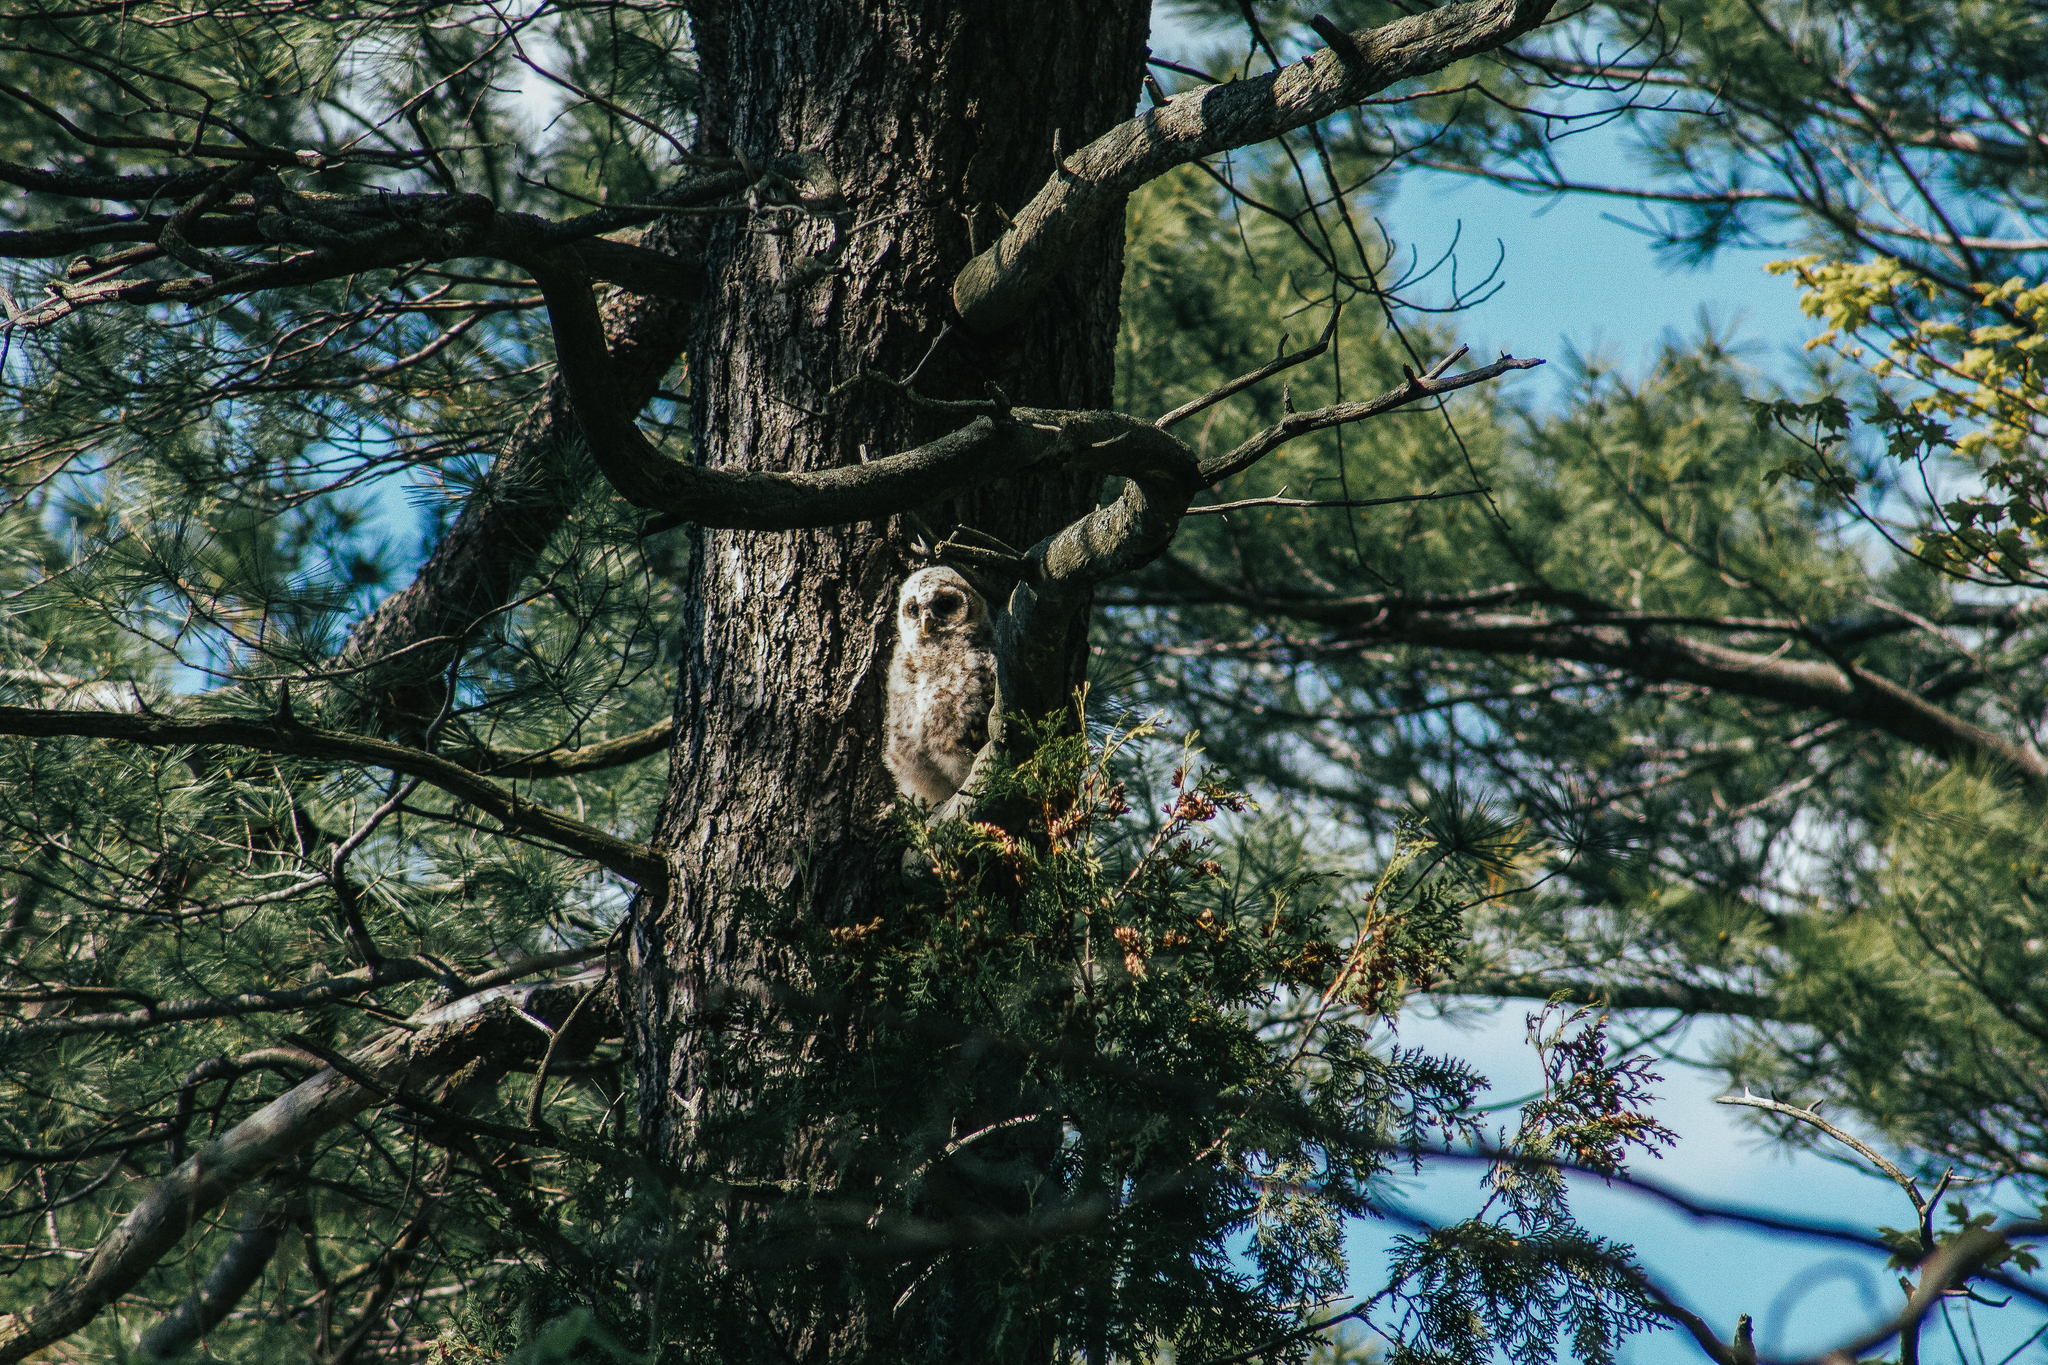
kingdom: Animalia
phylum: Chordata
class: Aves
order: Strigiformes
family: Strigidae
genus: Strix
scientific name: Strix varia
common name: Barred owl
